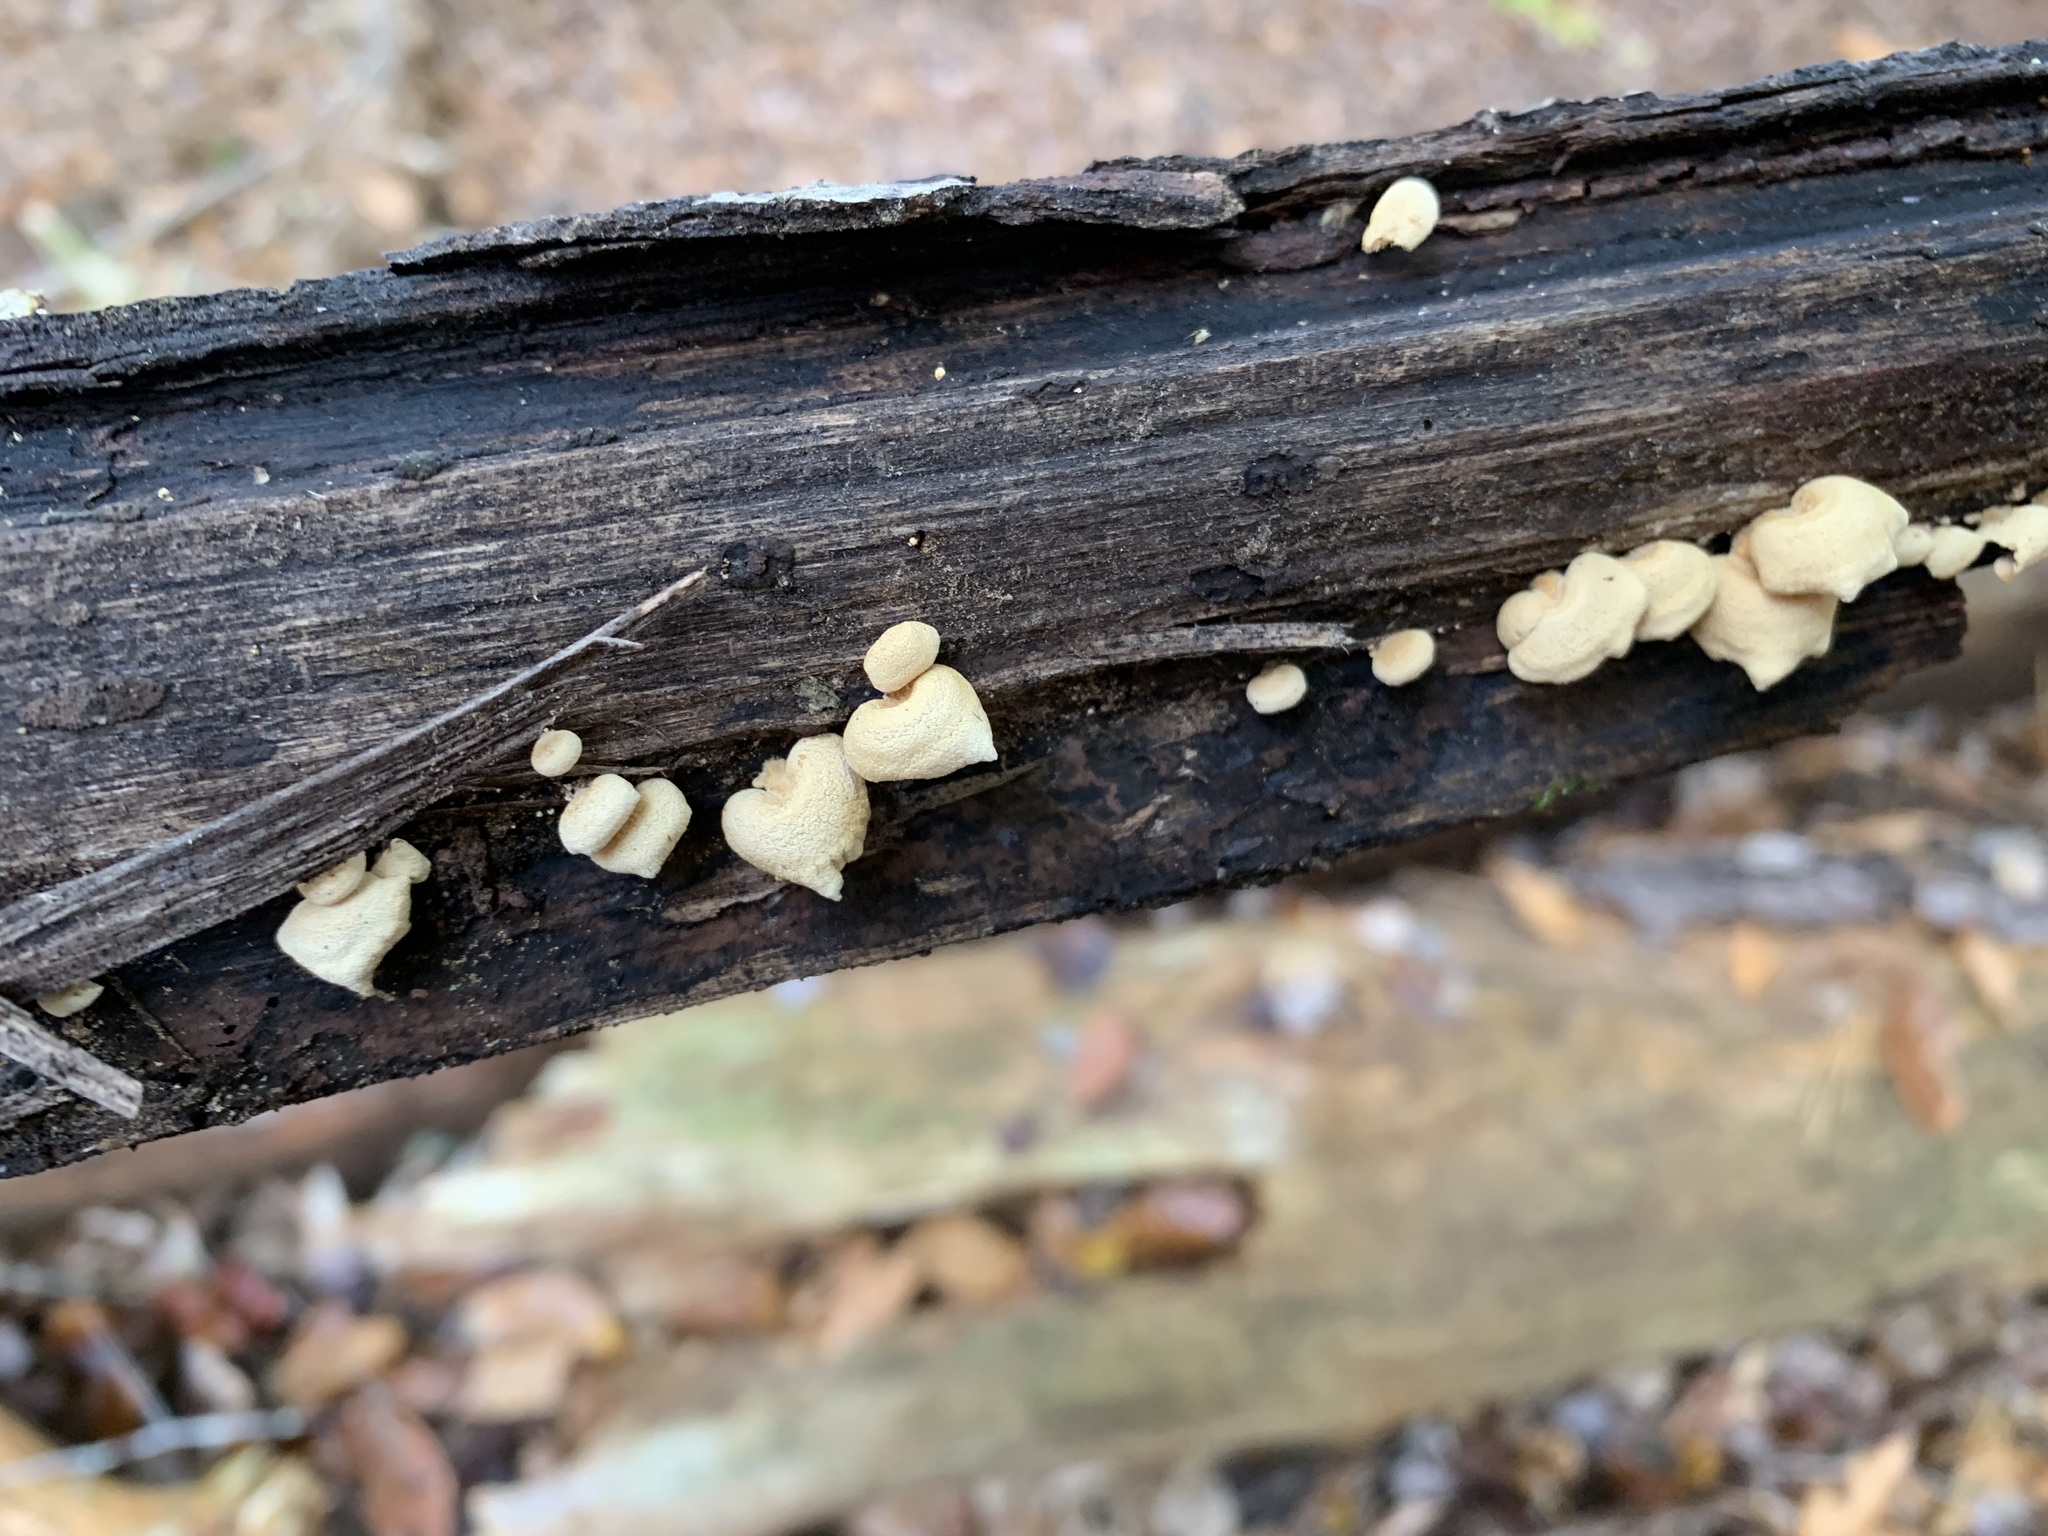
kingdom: Fungi
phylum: Basidiomycota
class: Agaricomycetes
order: Agaricales
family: Mycenaceae
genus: Panellus
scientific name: Panellus stipticus
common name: Bitter oysterling
